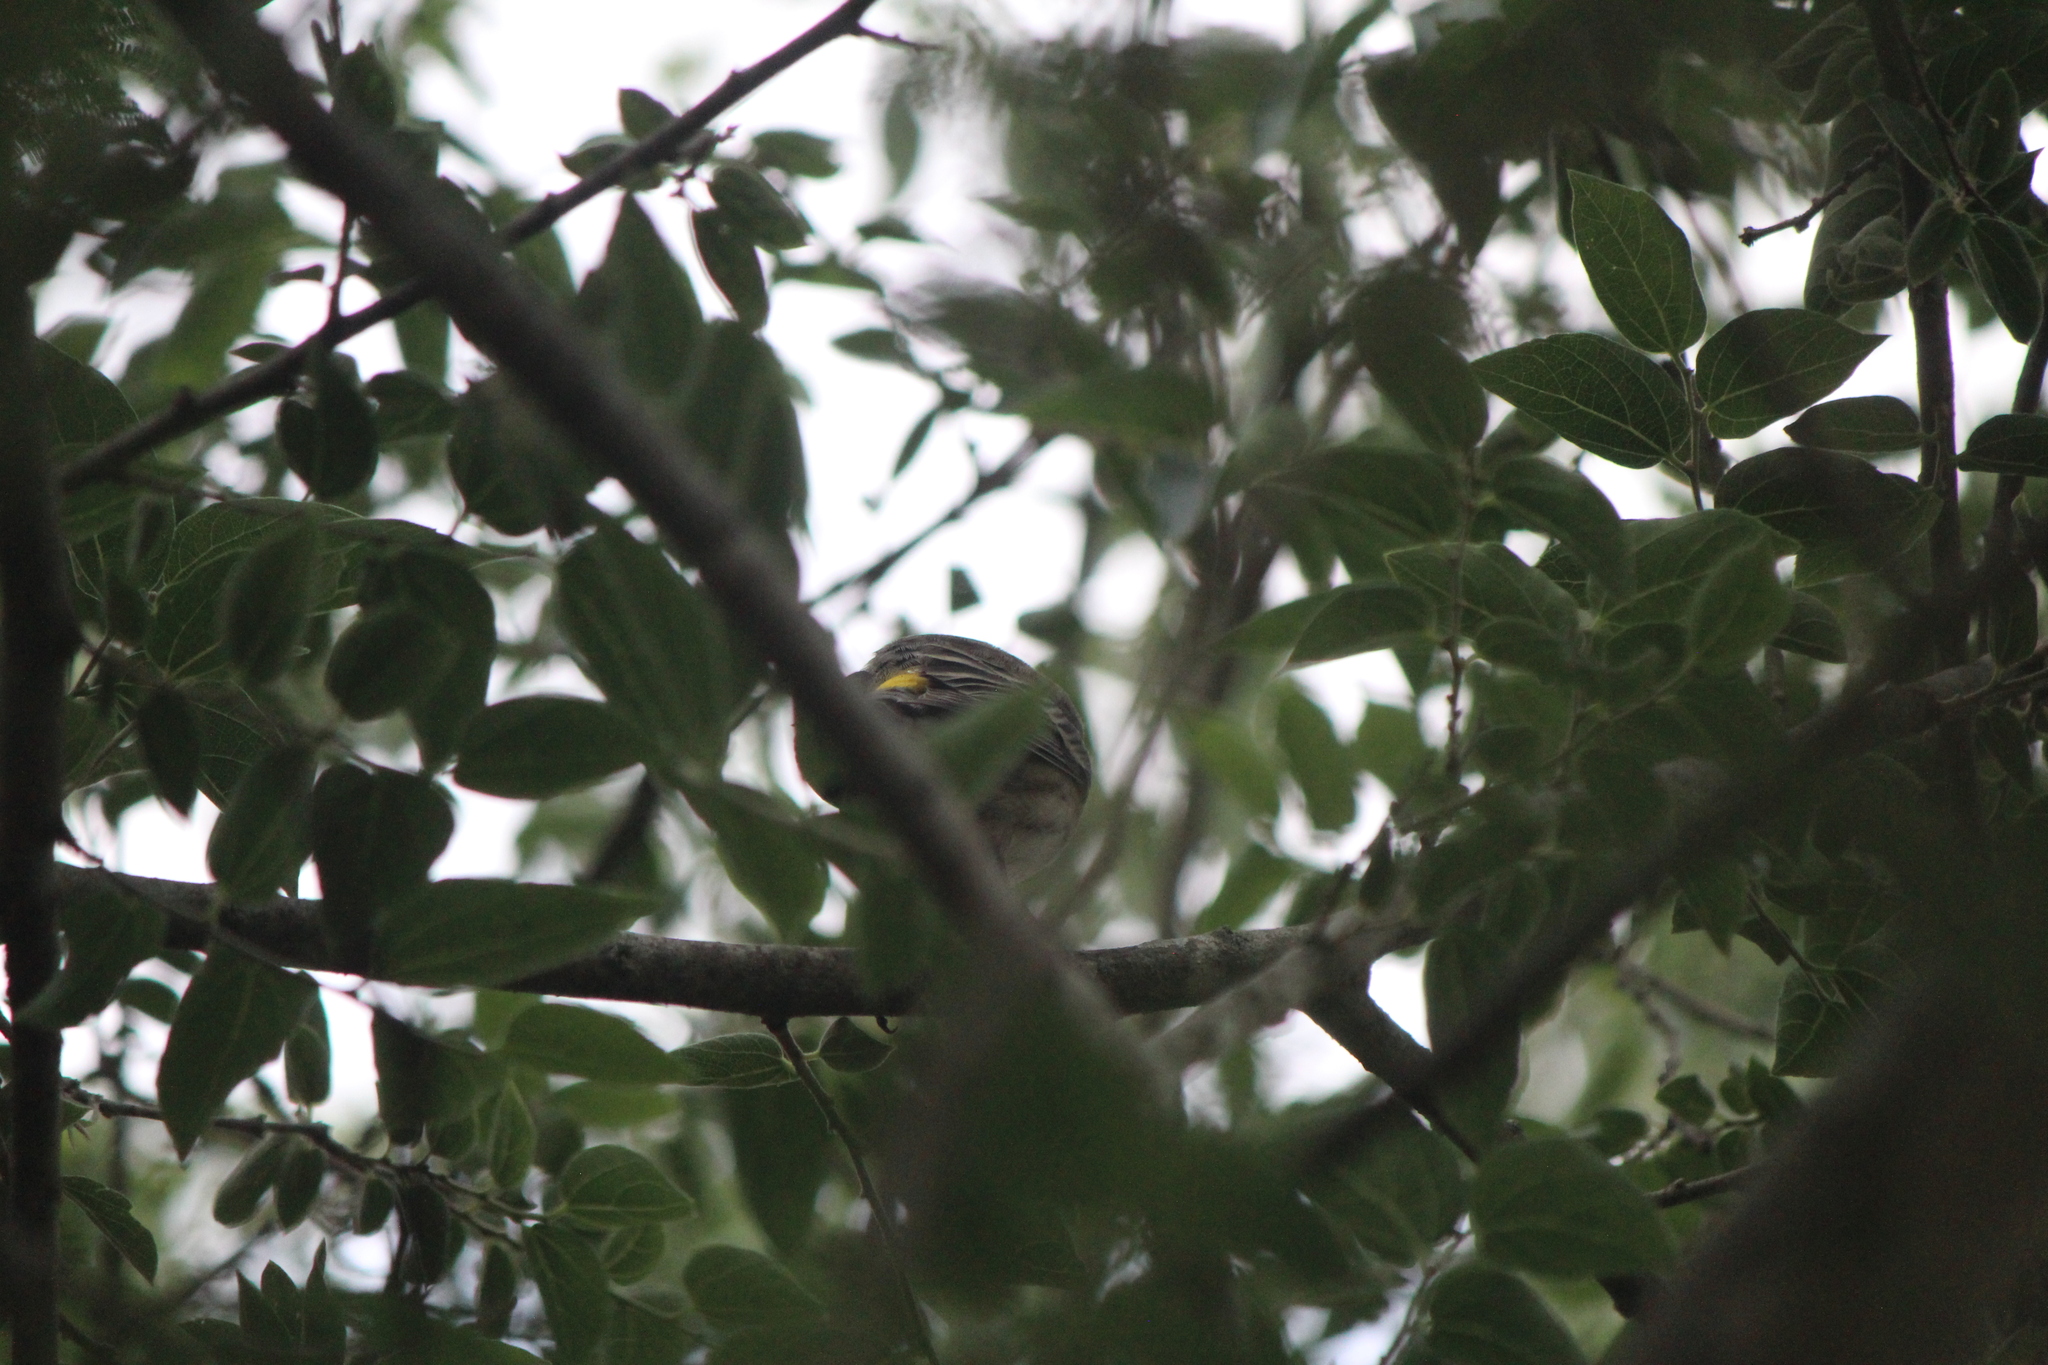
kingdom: Animalia
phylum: Chordata
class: Aves
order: Passeriformes
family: Parulidae
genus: Setophaga
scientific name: Setophaga auduboni
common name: Audubon's warbler
